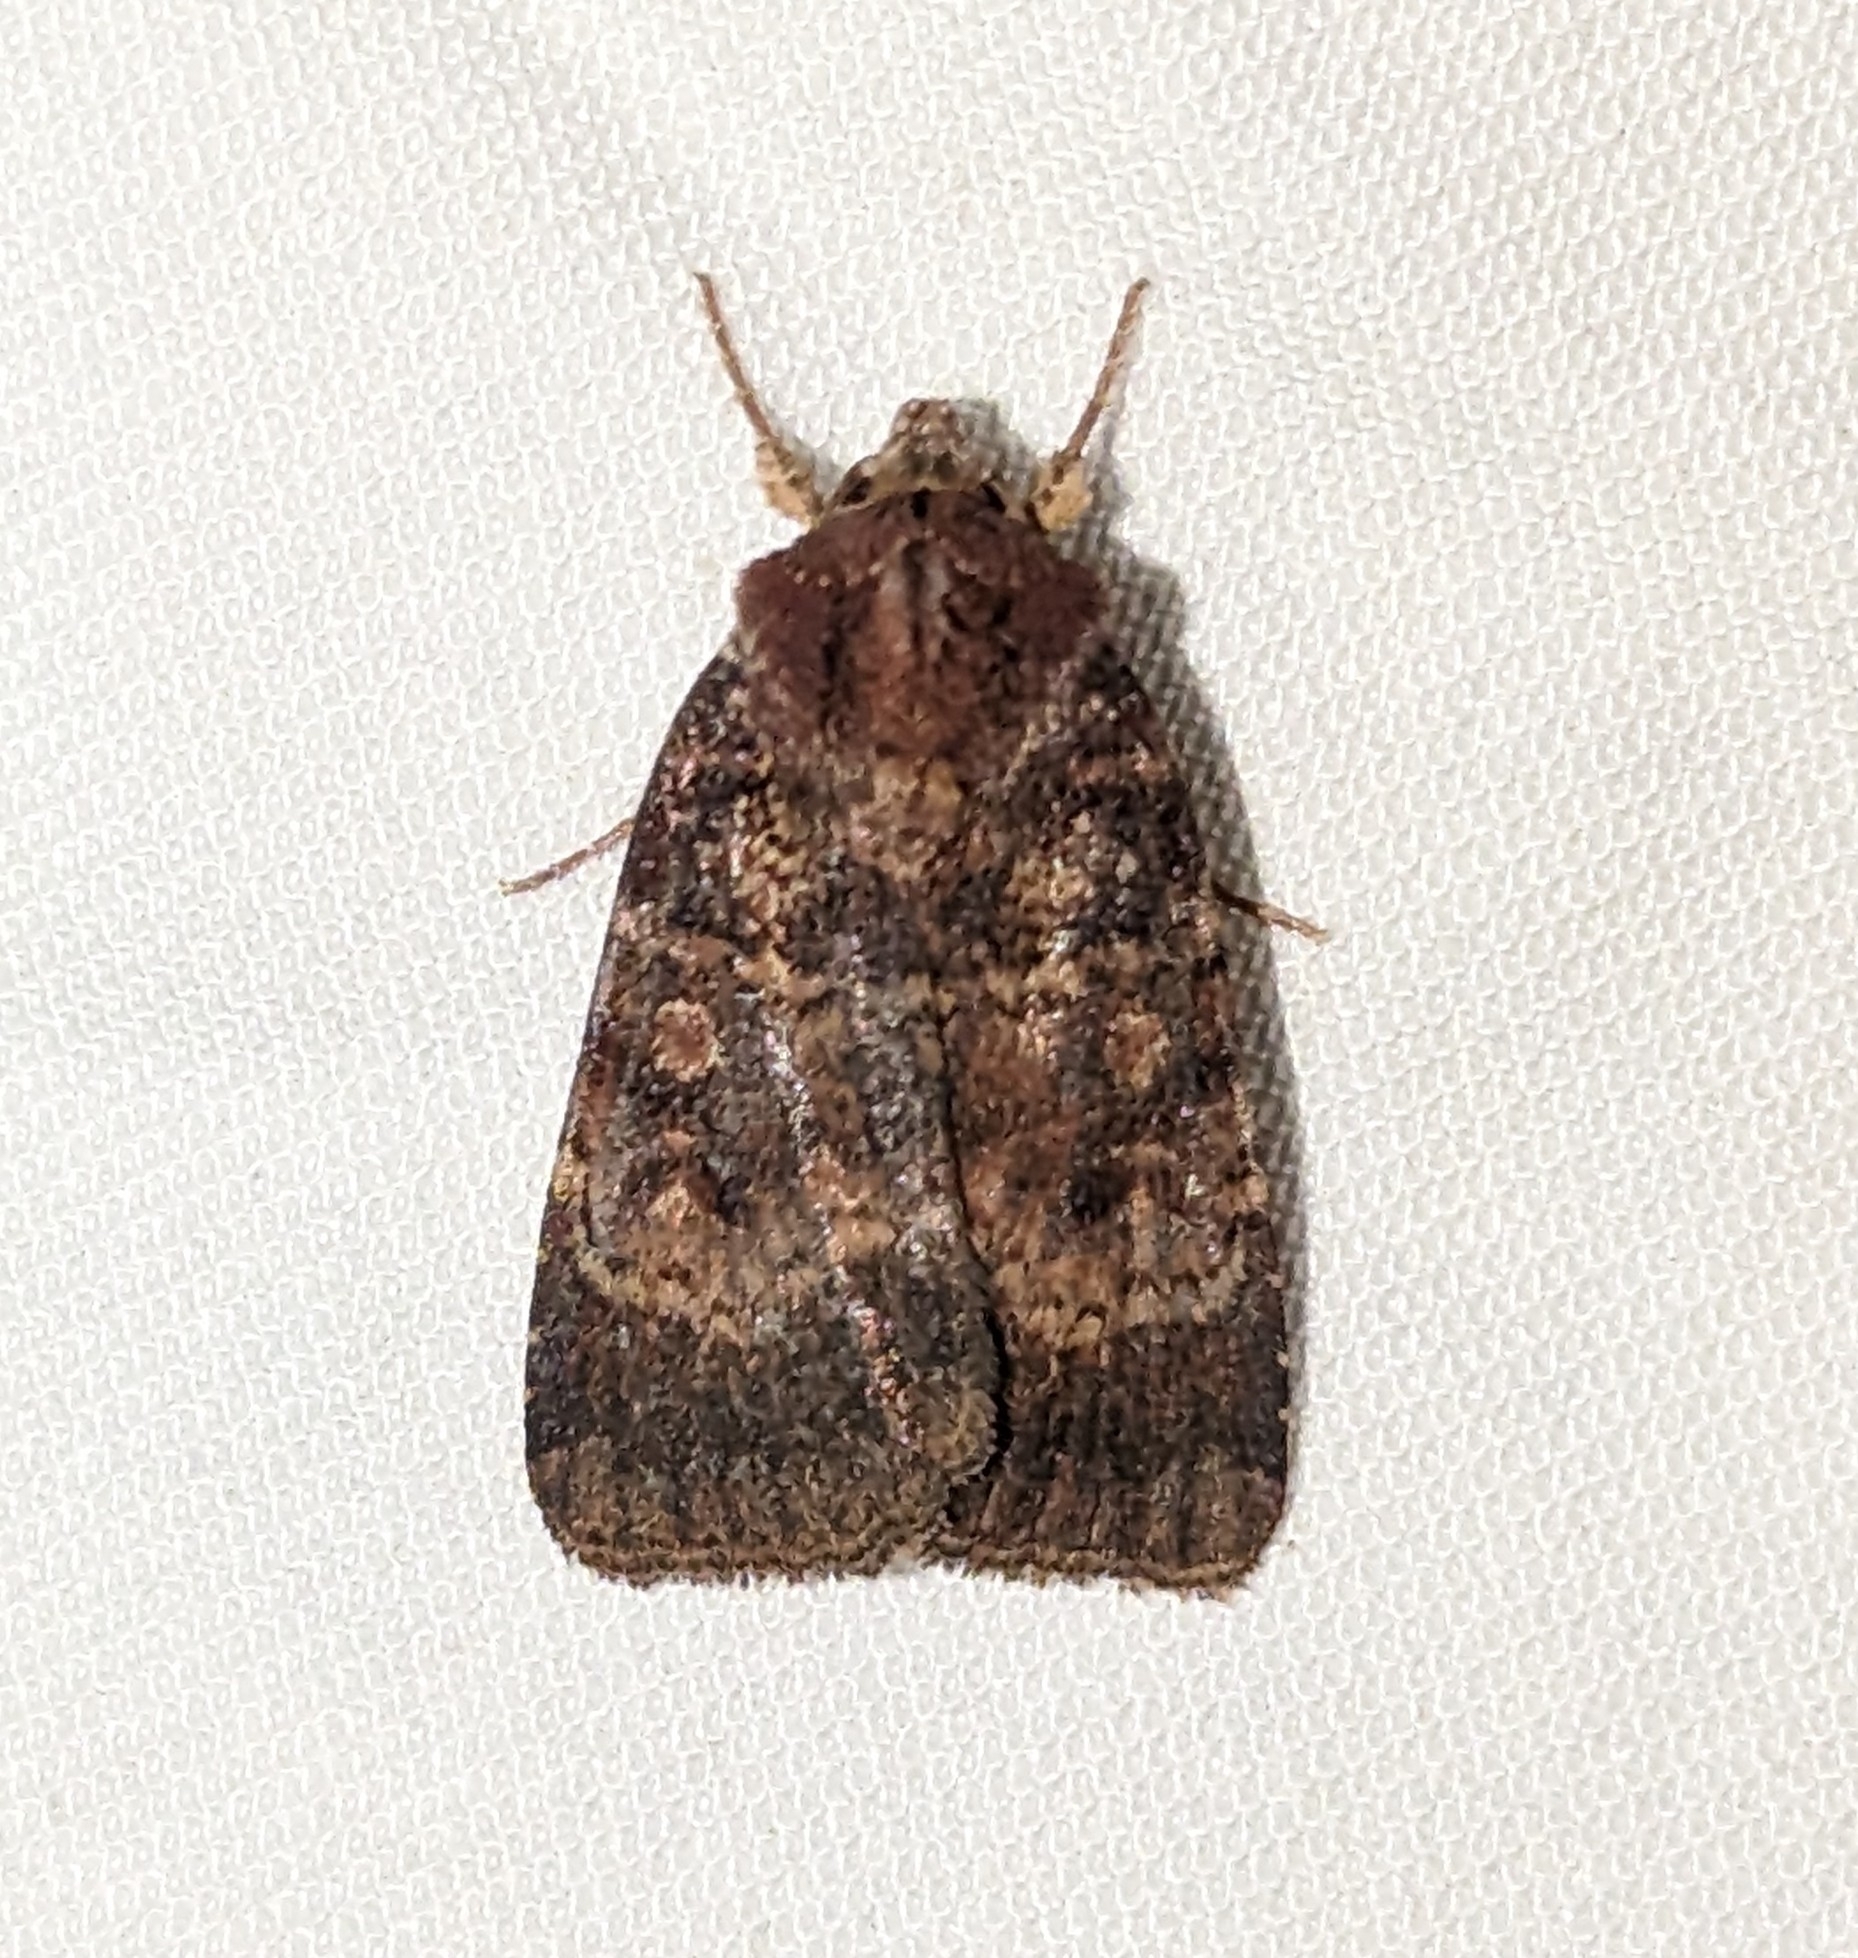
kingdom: Animalia
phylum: Arthropoda
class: Insecta
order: Lepidoptera
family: Noctuidae
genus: Abagrotis
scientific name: Abagrotis apposita
